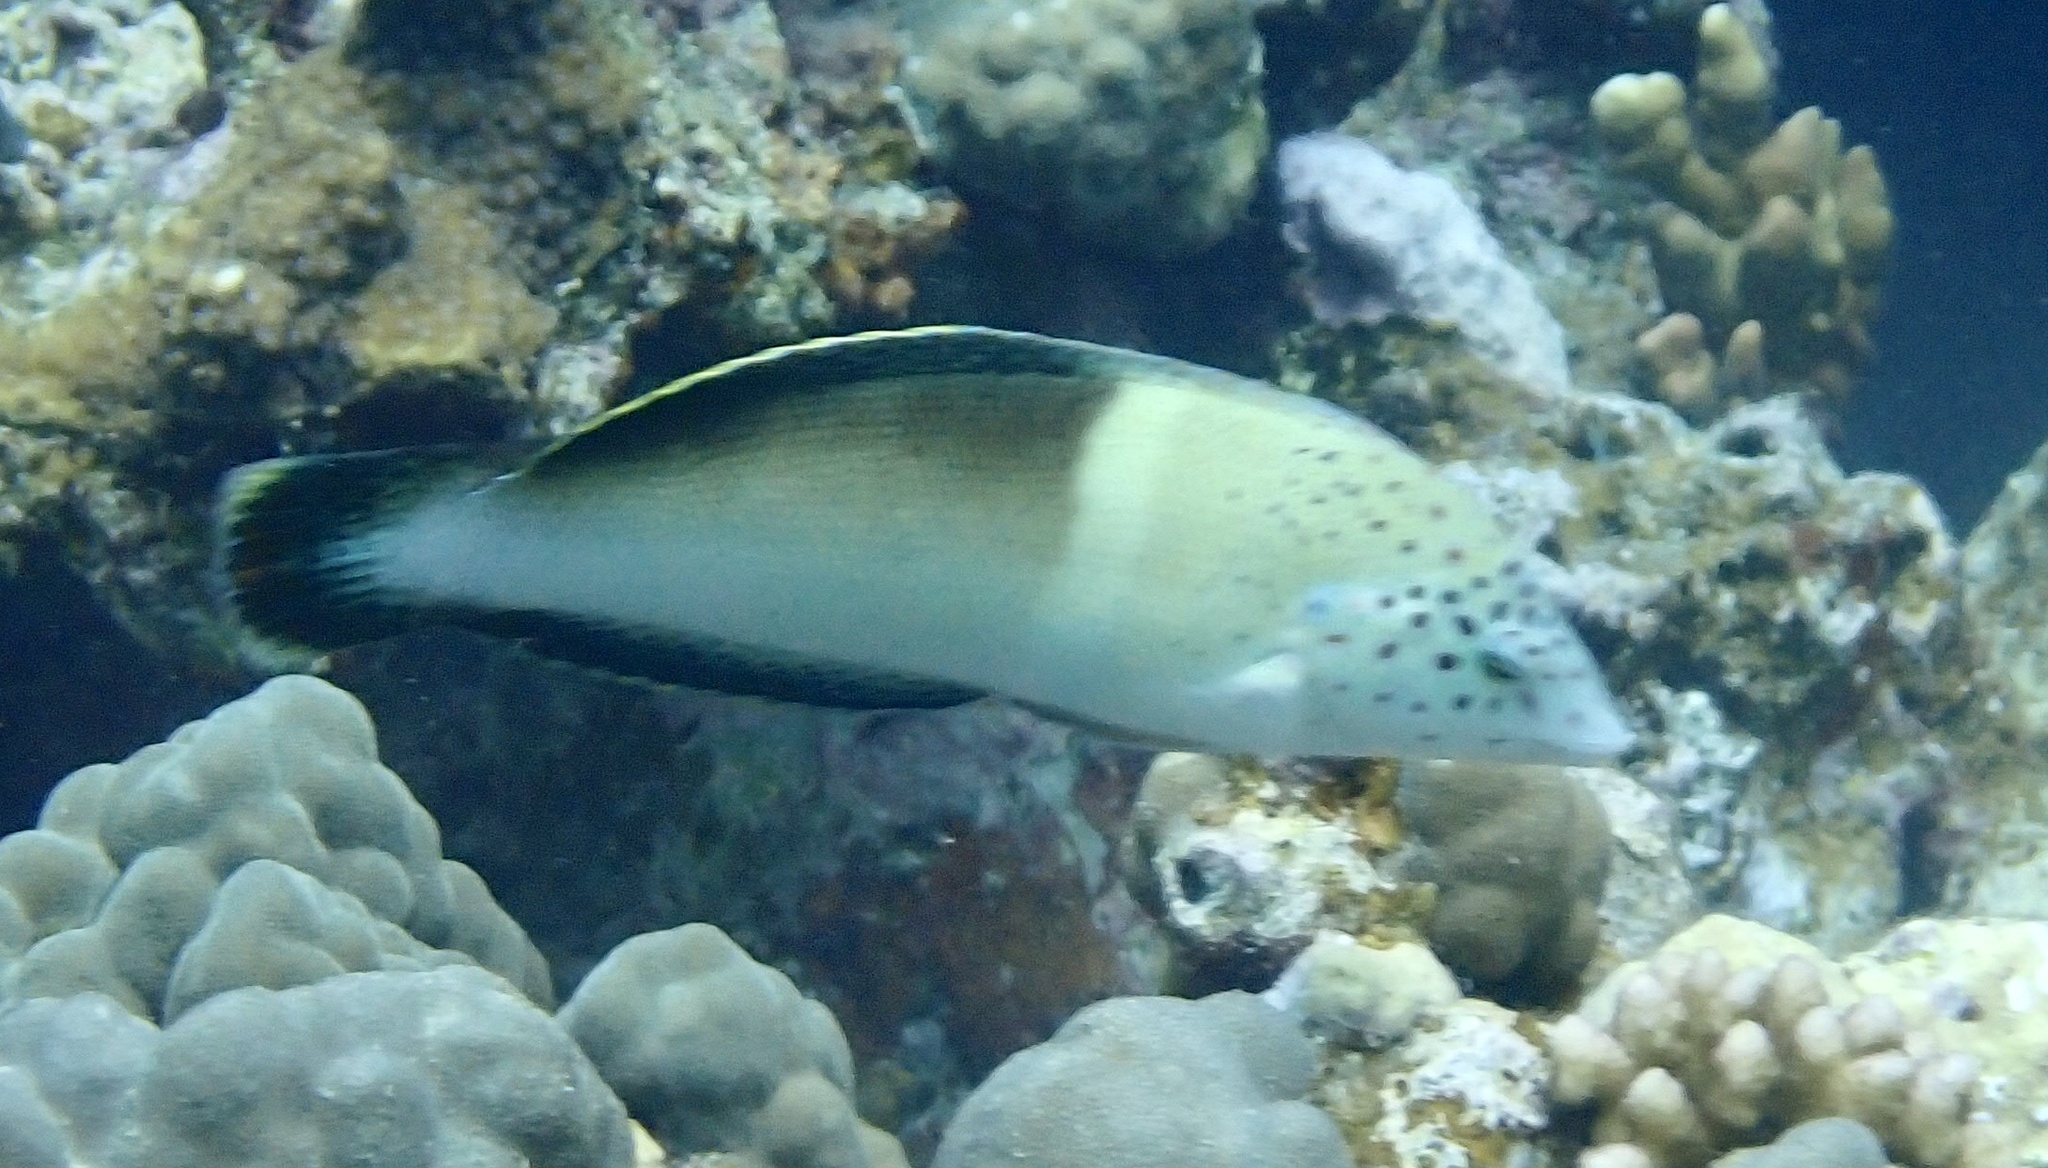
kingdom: Animalia
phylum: Chordata
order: Perciformes
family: Labridae
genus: Coris
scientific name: Coris aygula
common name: Clown coris
